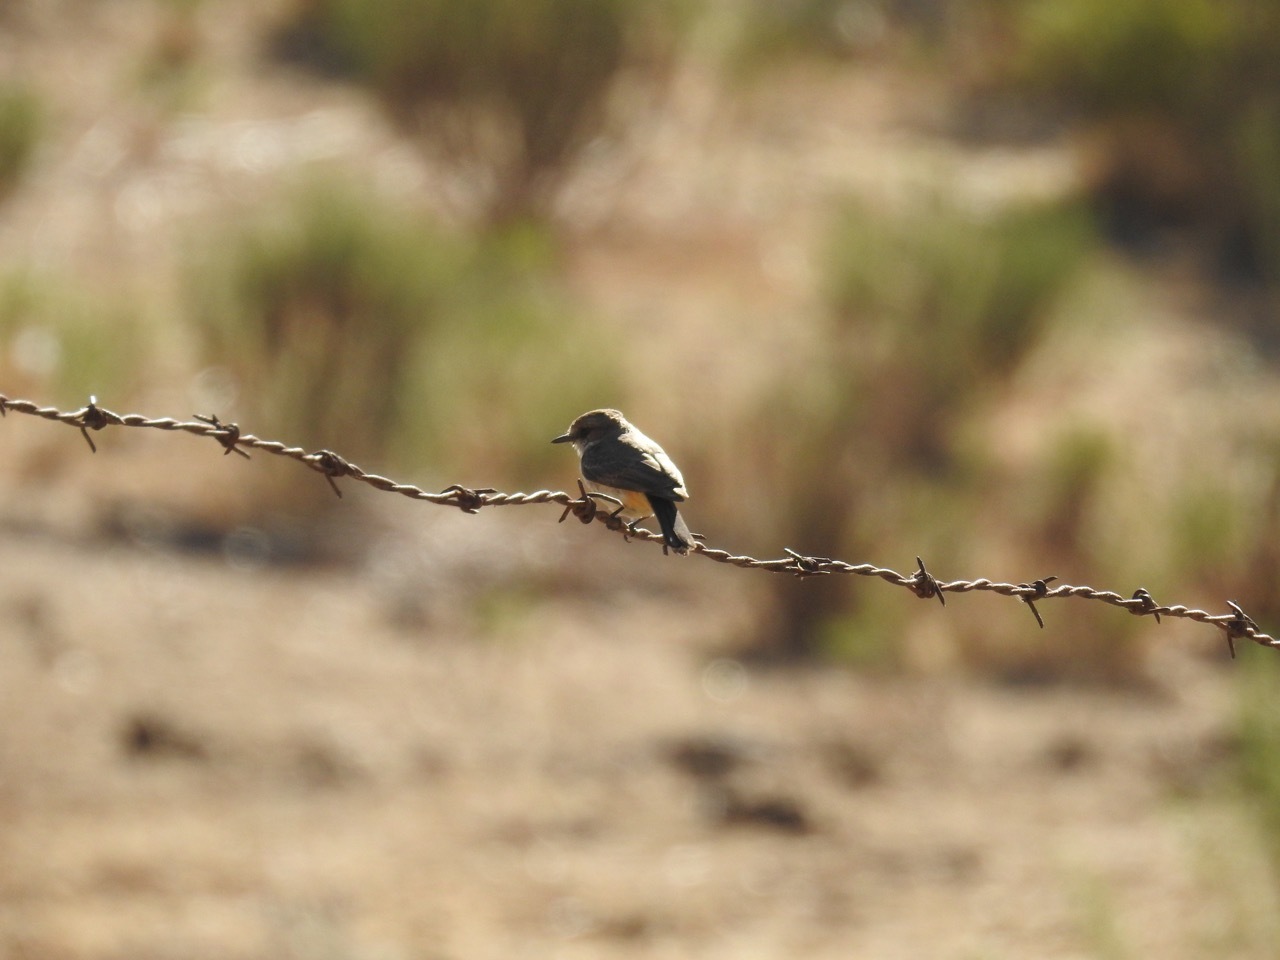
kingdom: Animalia
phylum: Chordata
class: Aves
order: Passeriformes
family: Tyrannidae
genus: Pyrocephalus
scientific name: Pyrocephalus rubinus
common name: Vermilion flycatcher
